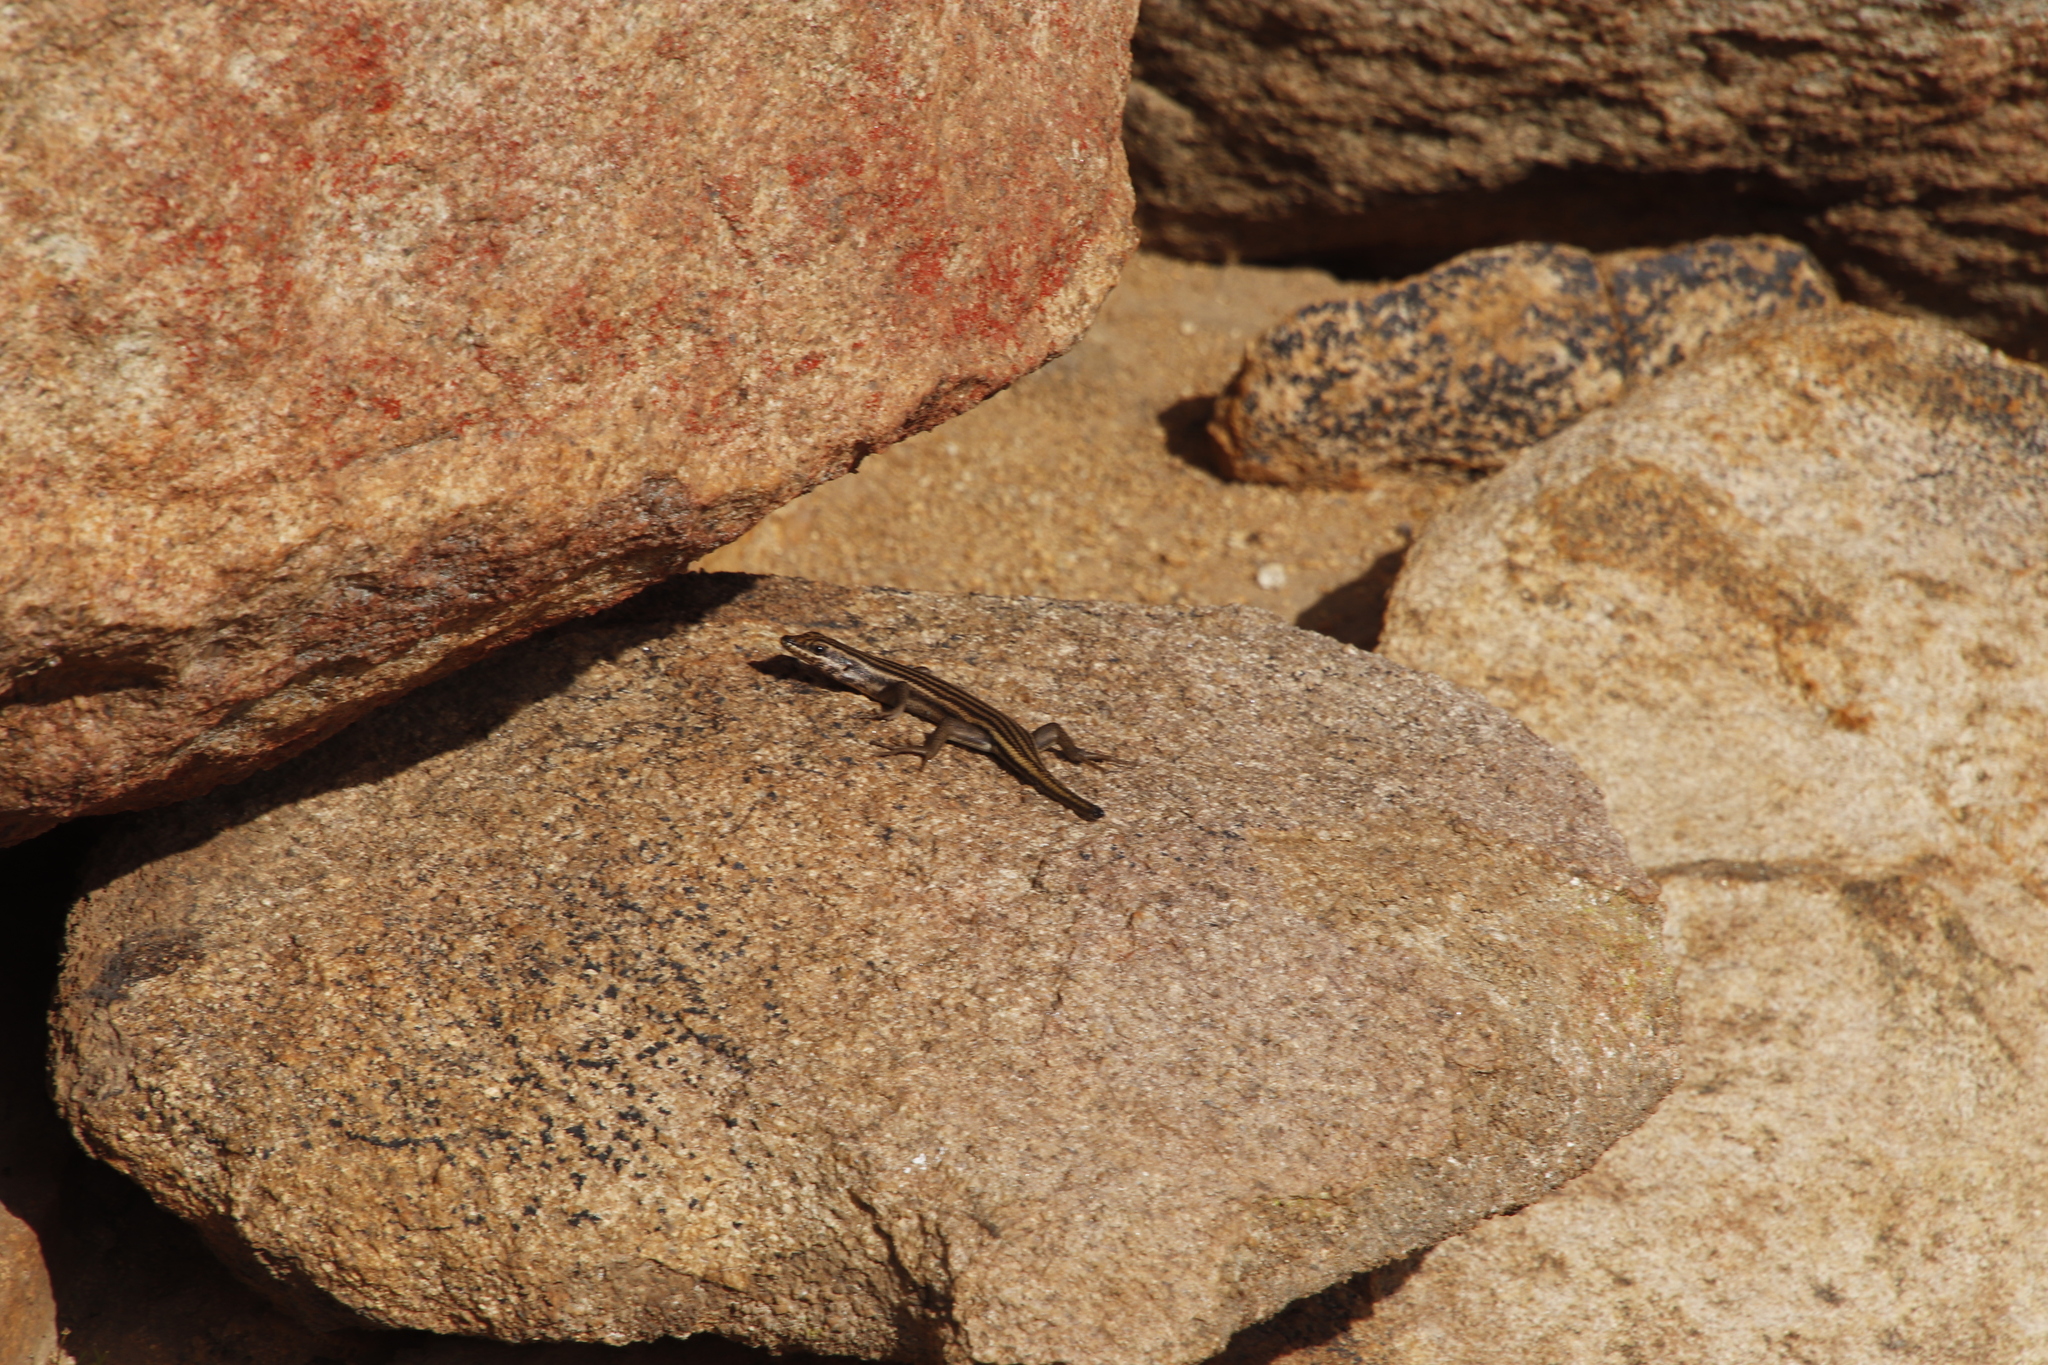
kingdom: Animalia
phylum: Chordata
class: Squamata
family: Scincidae
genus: Trachylepis
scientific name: Trachylepis sulcata
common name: Western rock skink
